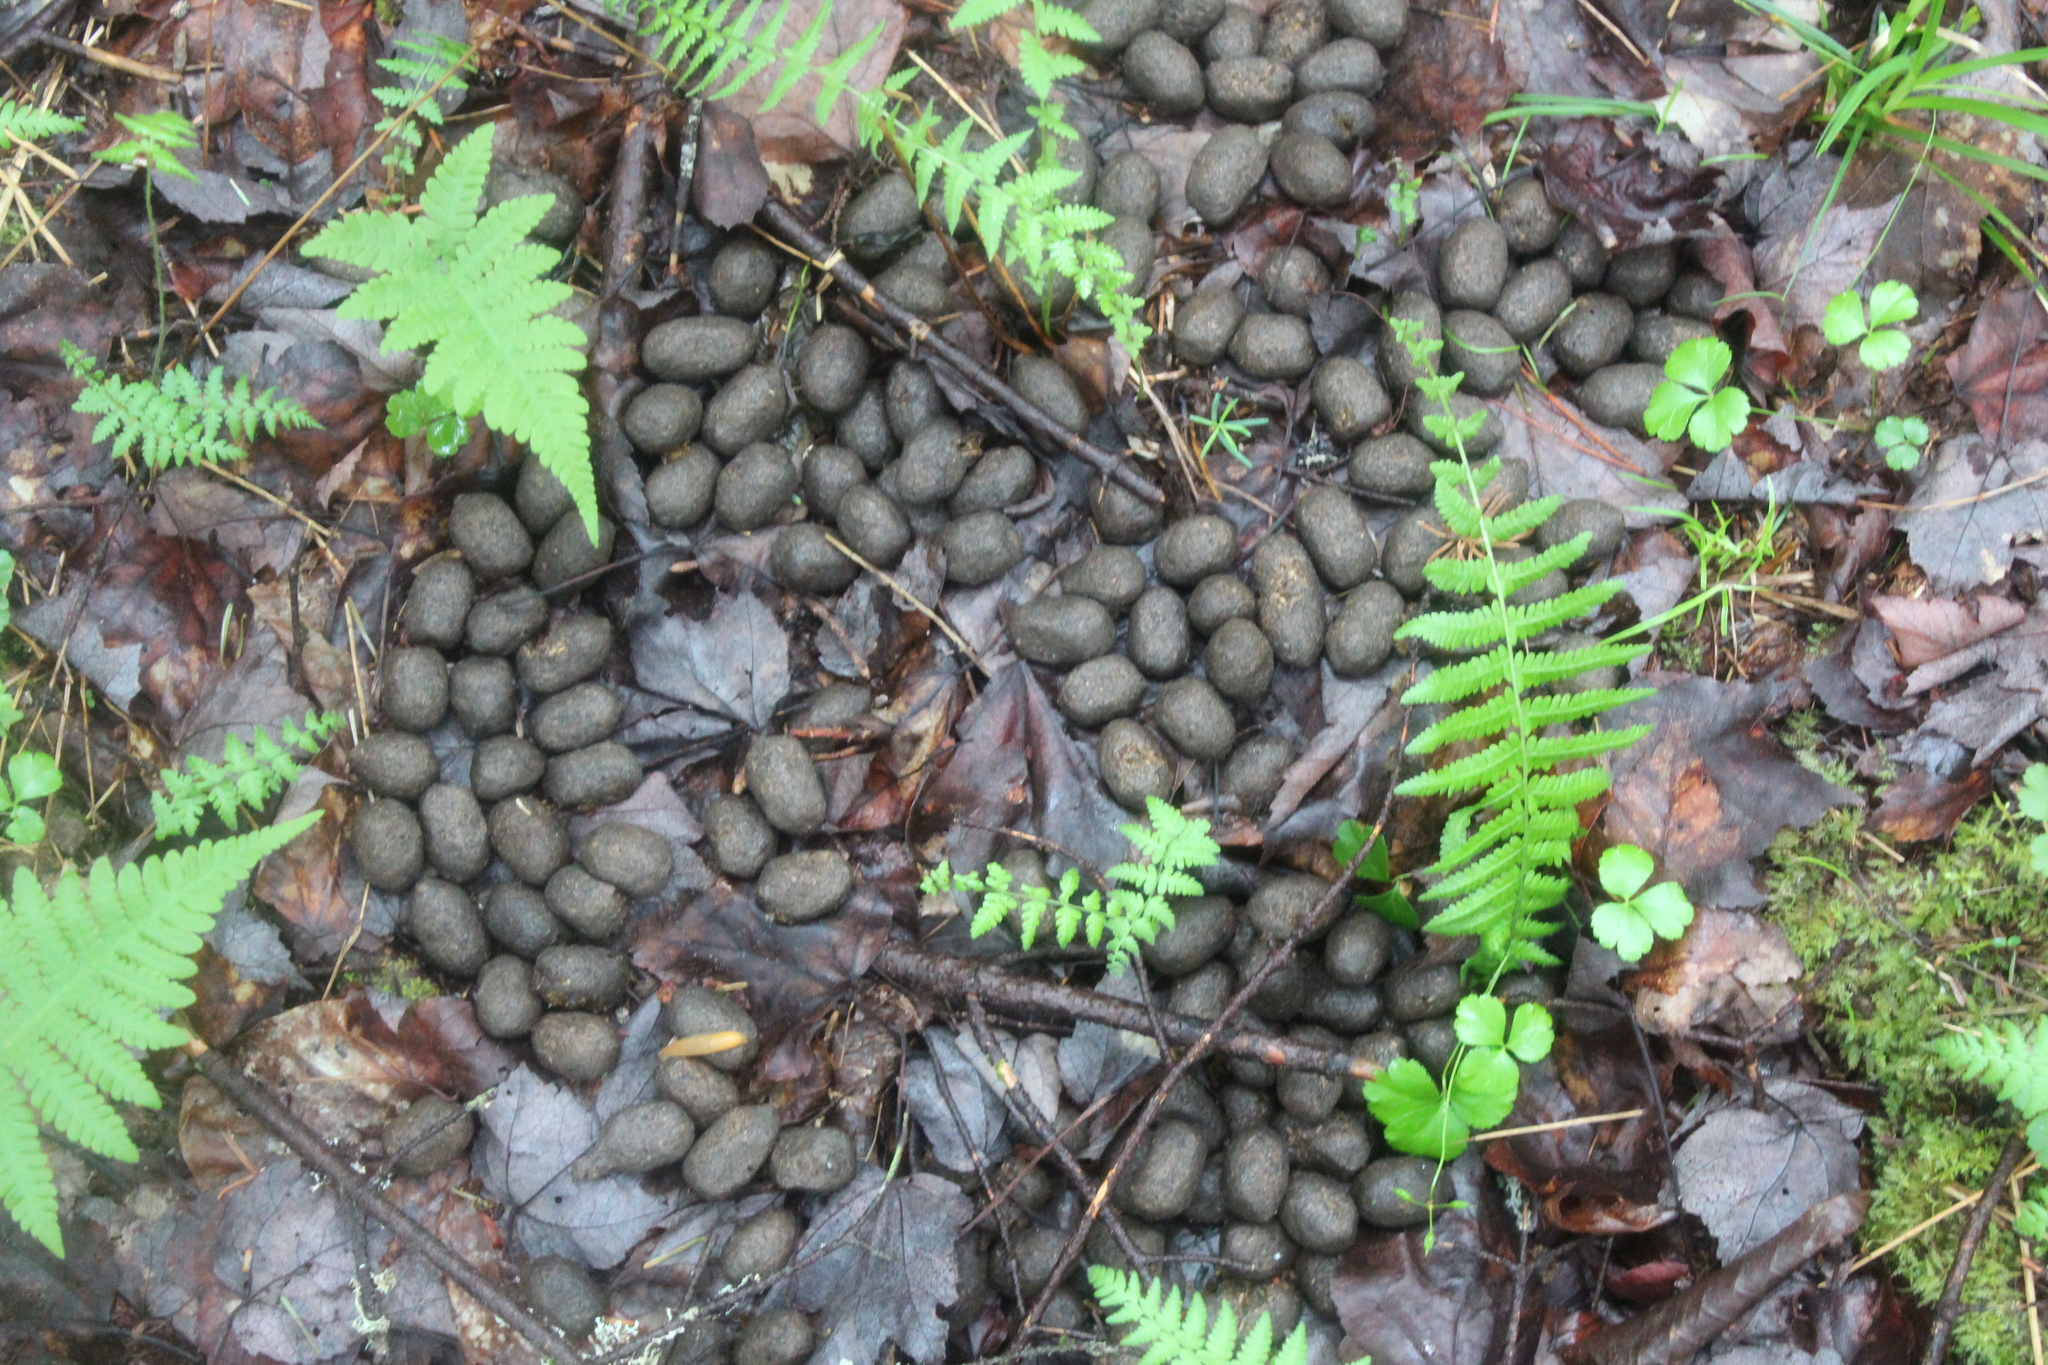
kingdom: Animalia
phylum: Chordata
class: Mammalia
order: Artiodactyla
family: Cervidae
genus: Alces
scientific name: Alces alces
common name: Moose
